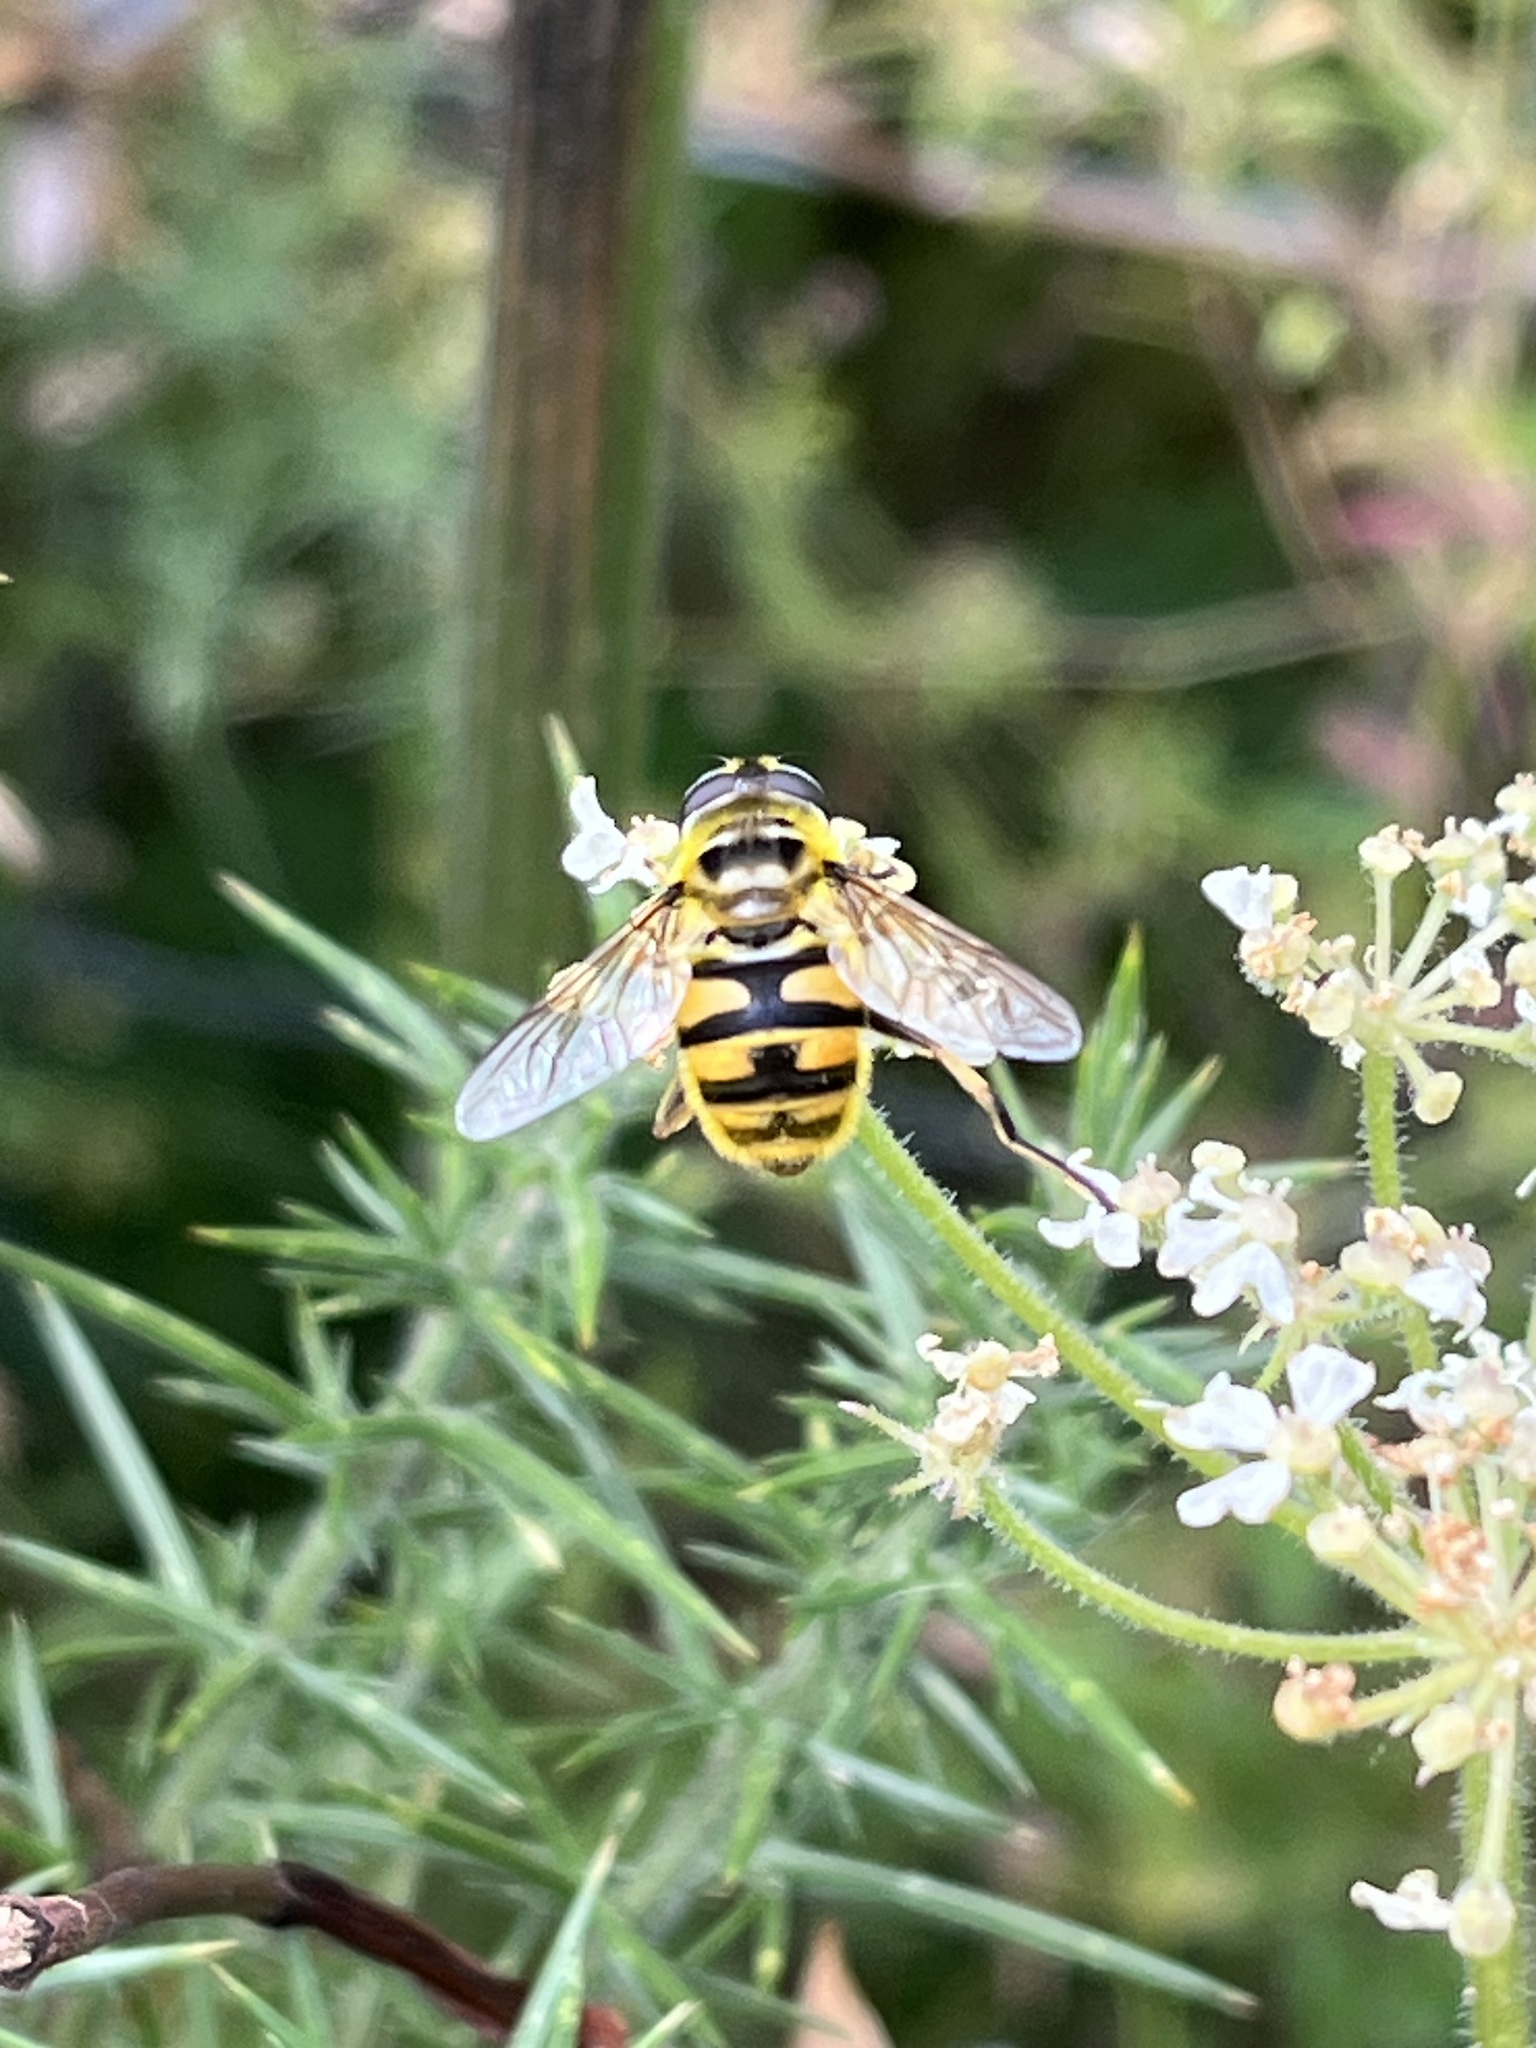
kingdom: Animalia
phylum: Arthropoda
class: Insecta
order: Diptera
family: Syrphidae
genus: Myathropa
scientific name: Myathropa florea
